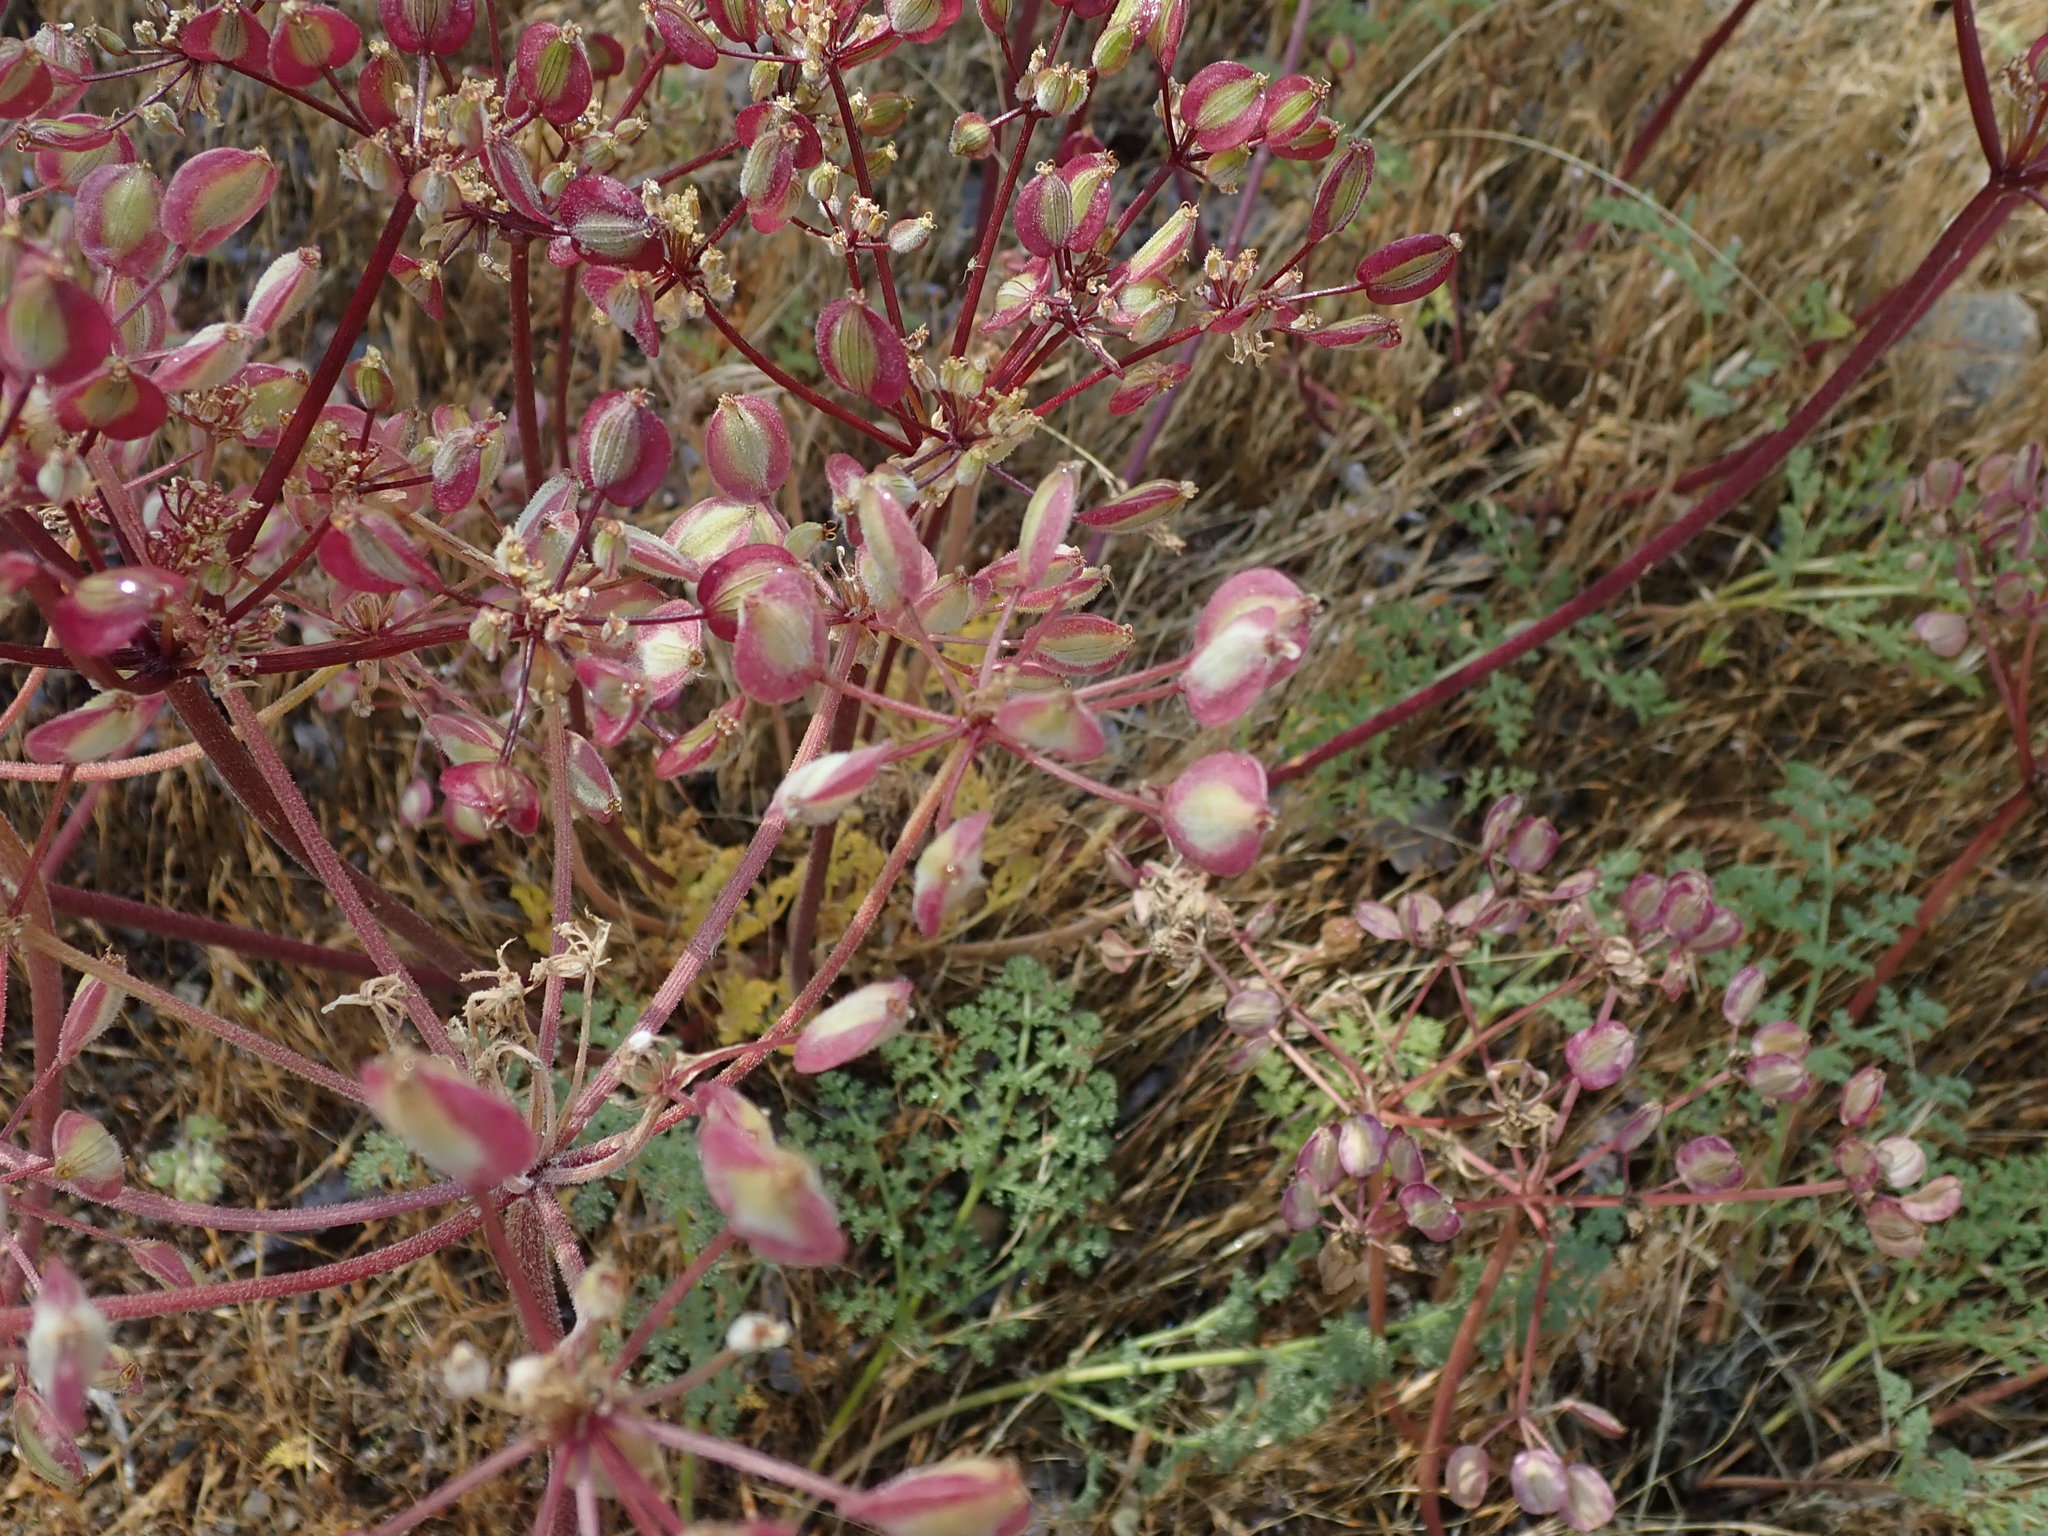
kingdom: Plantae
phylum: Tracheophyta
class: Magnoliopsida
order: Apiales
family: Apiaceae
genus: Lomatium
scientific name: Lomatium dasycarpum
